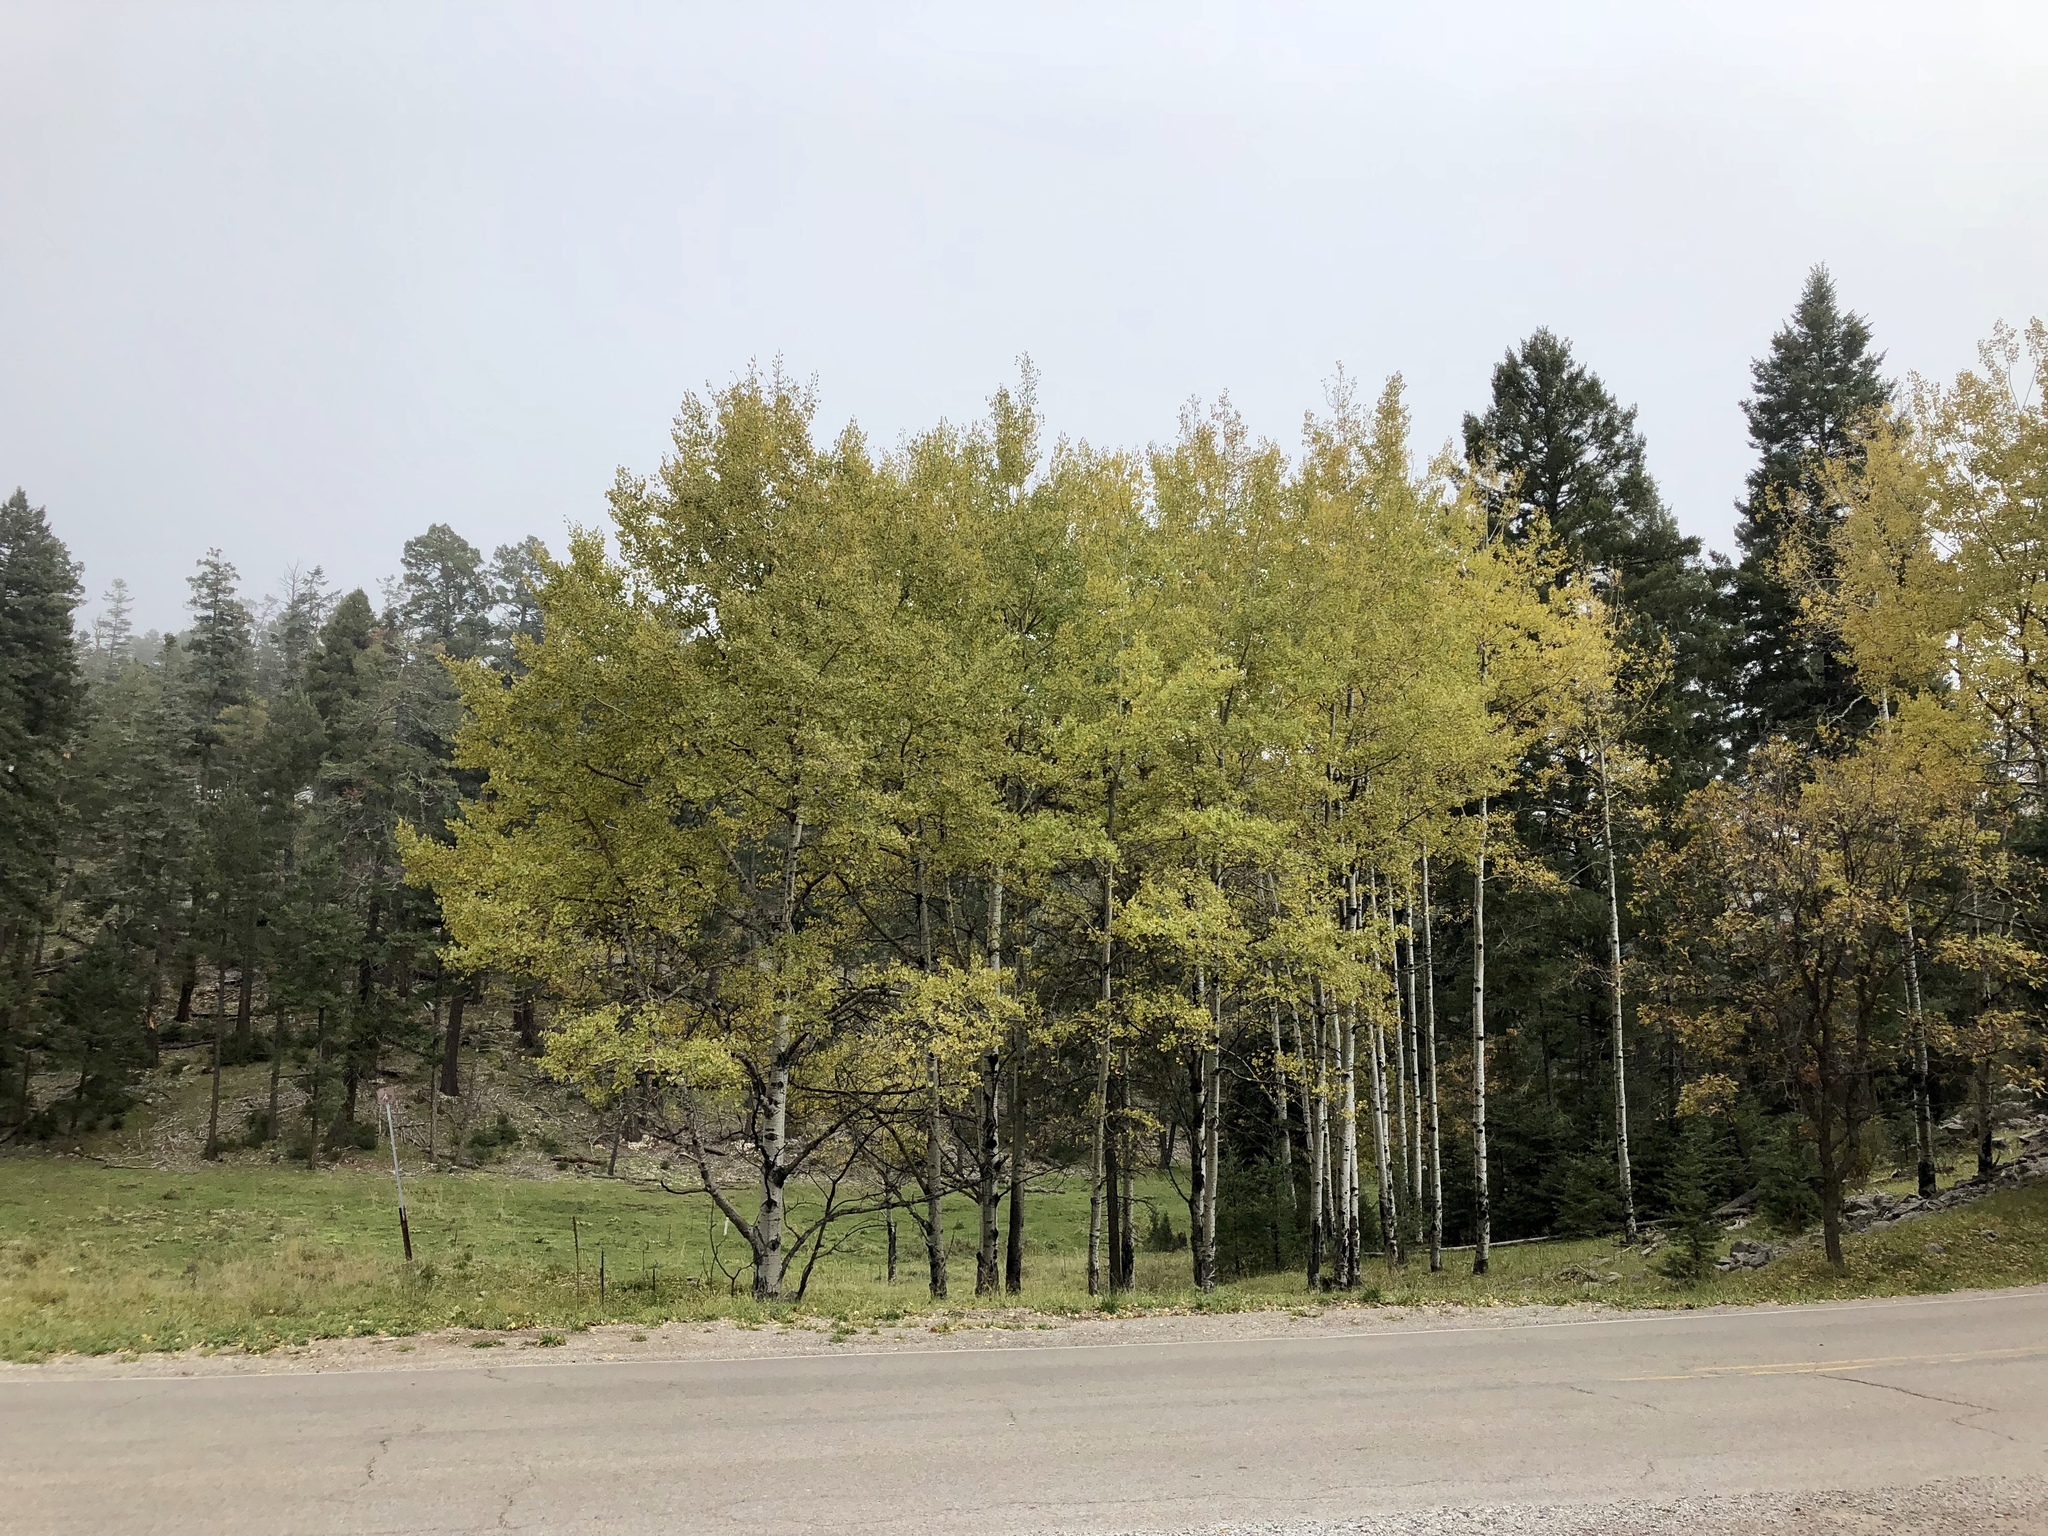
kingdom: Plantae
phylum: Tracheophyta
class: Magnoliopsida
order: Malpighiales
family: Salicaceae
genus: Populus
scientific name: Populus tremuloides
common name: Quaking aspen
